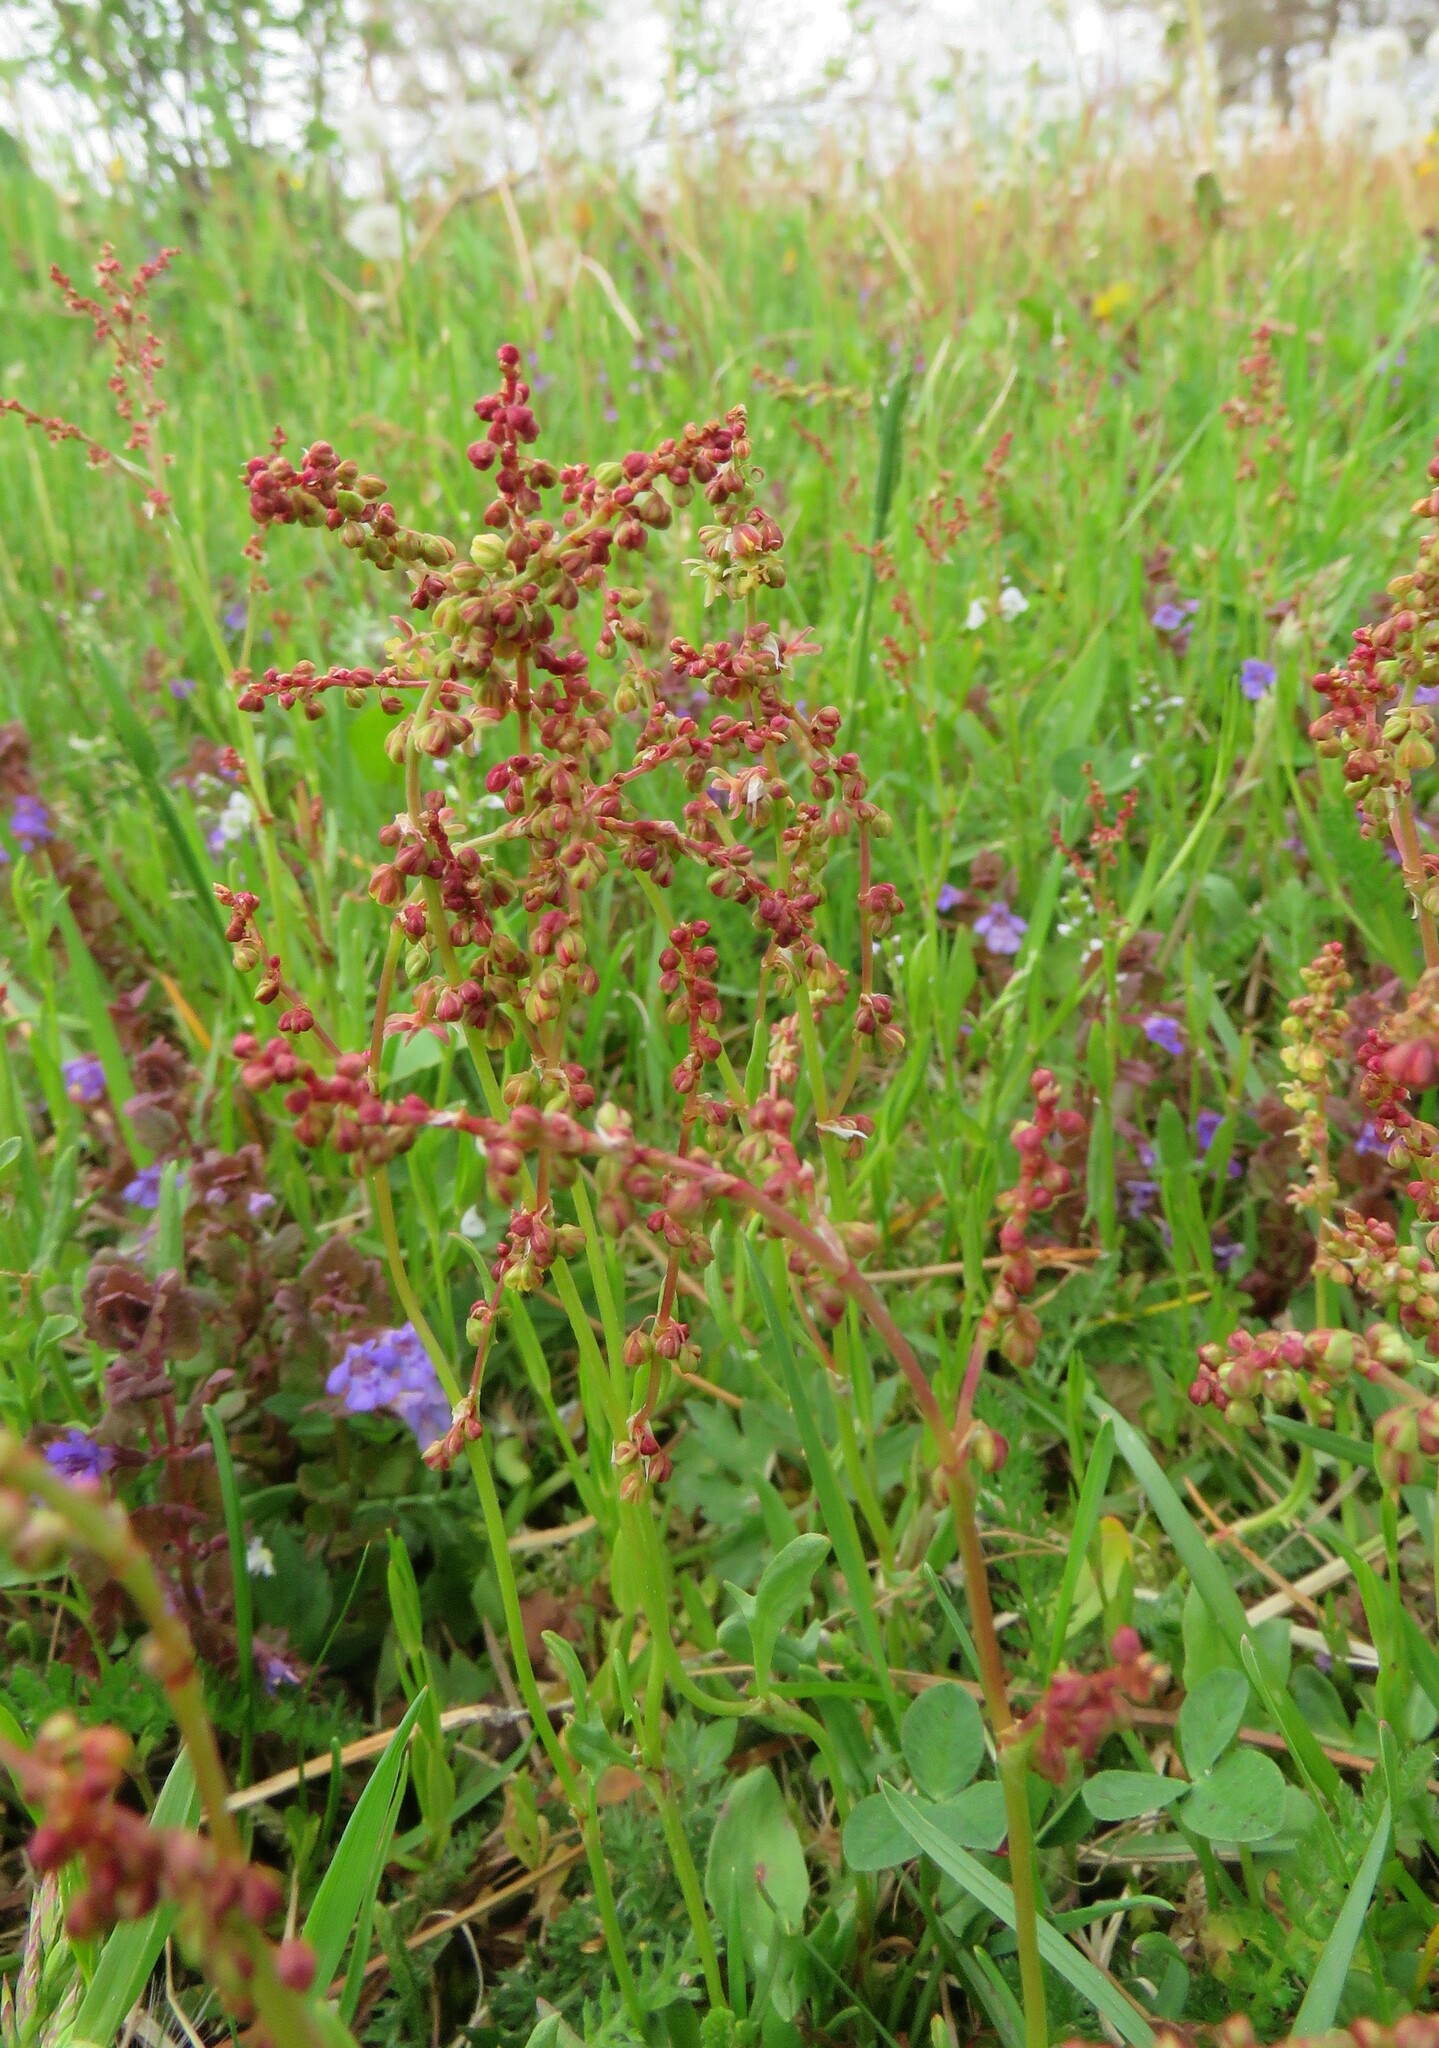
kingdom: Plantae
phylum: Tracheophyta
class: Magnoliopsida
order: Caryophyllales
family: Polygonaceae
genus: Rumex
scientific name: Rumex acetosella
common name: Common sheep sorrel
